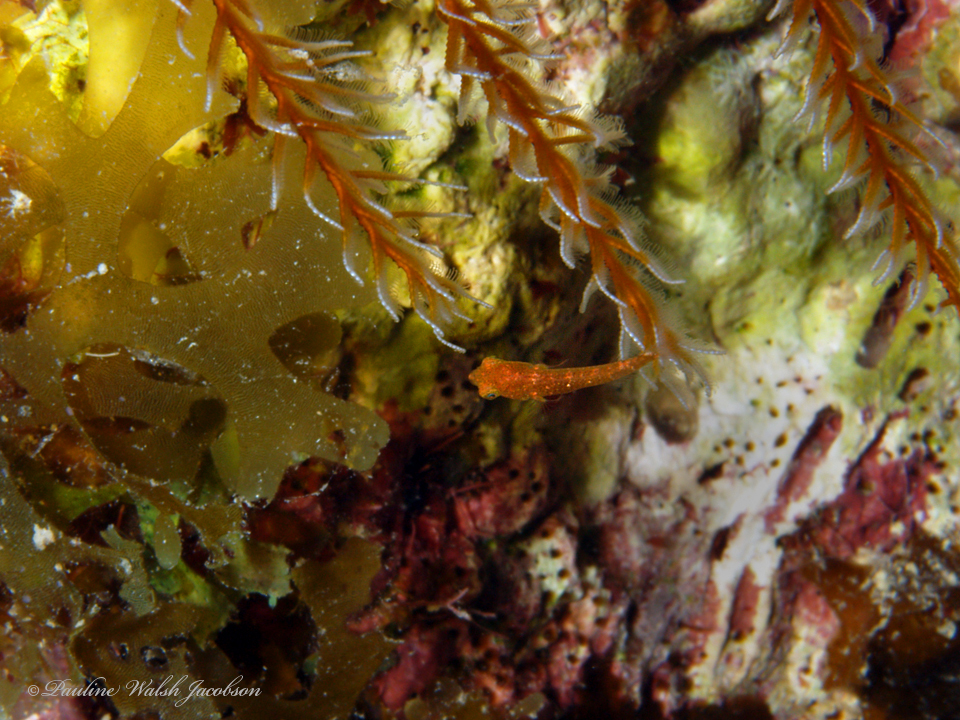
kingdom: Animalia
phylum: Chordata
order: Perciformes
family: Scaridae
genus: Sparisoma
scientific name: Sparisoma aurofrenatum
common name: Redband parrotfish
